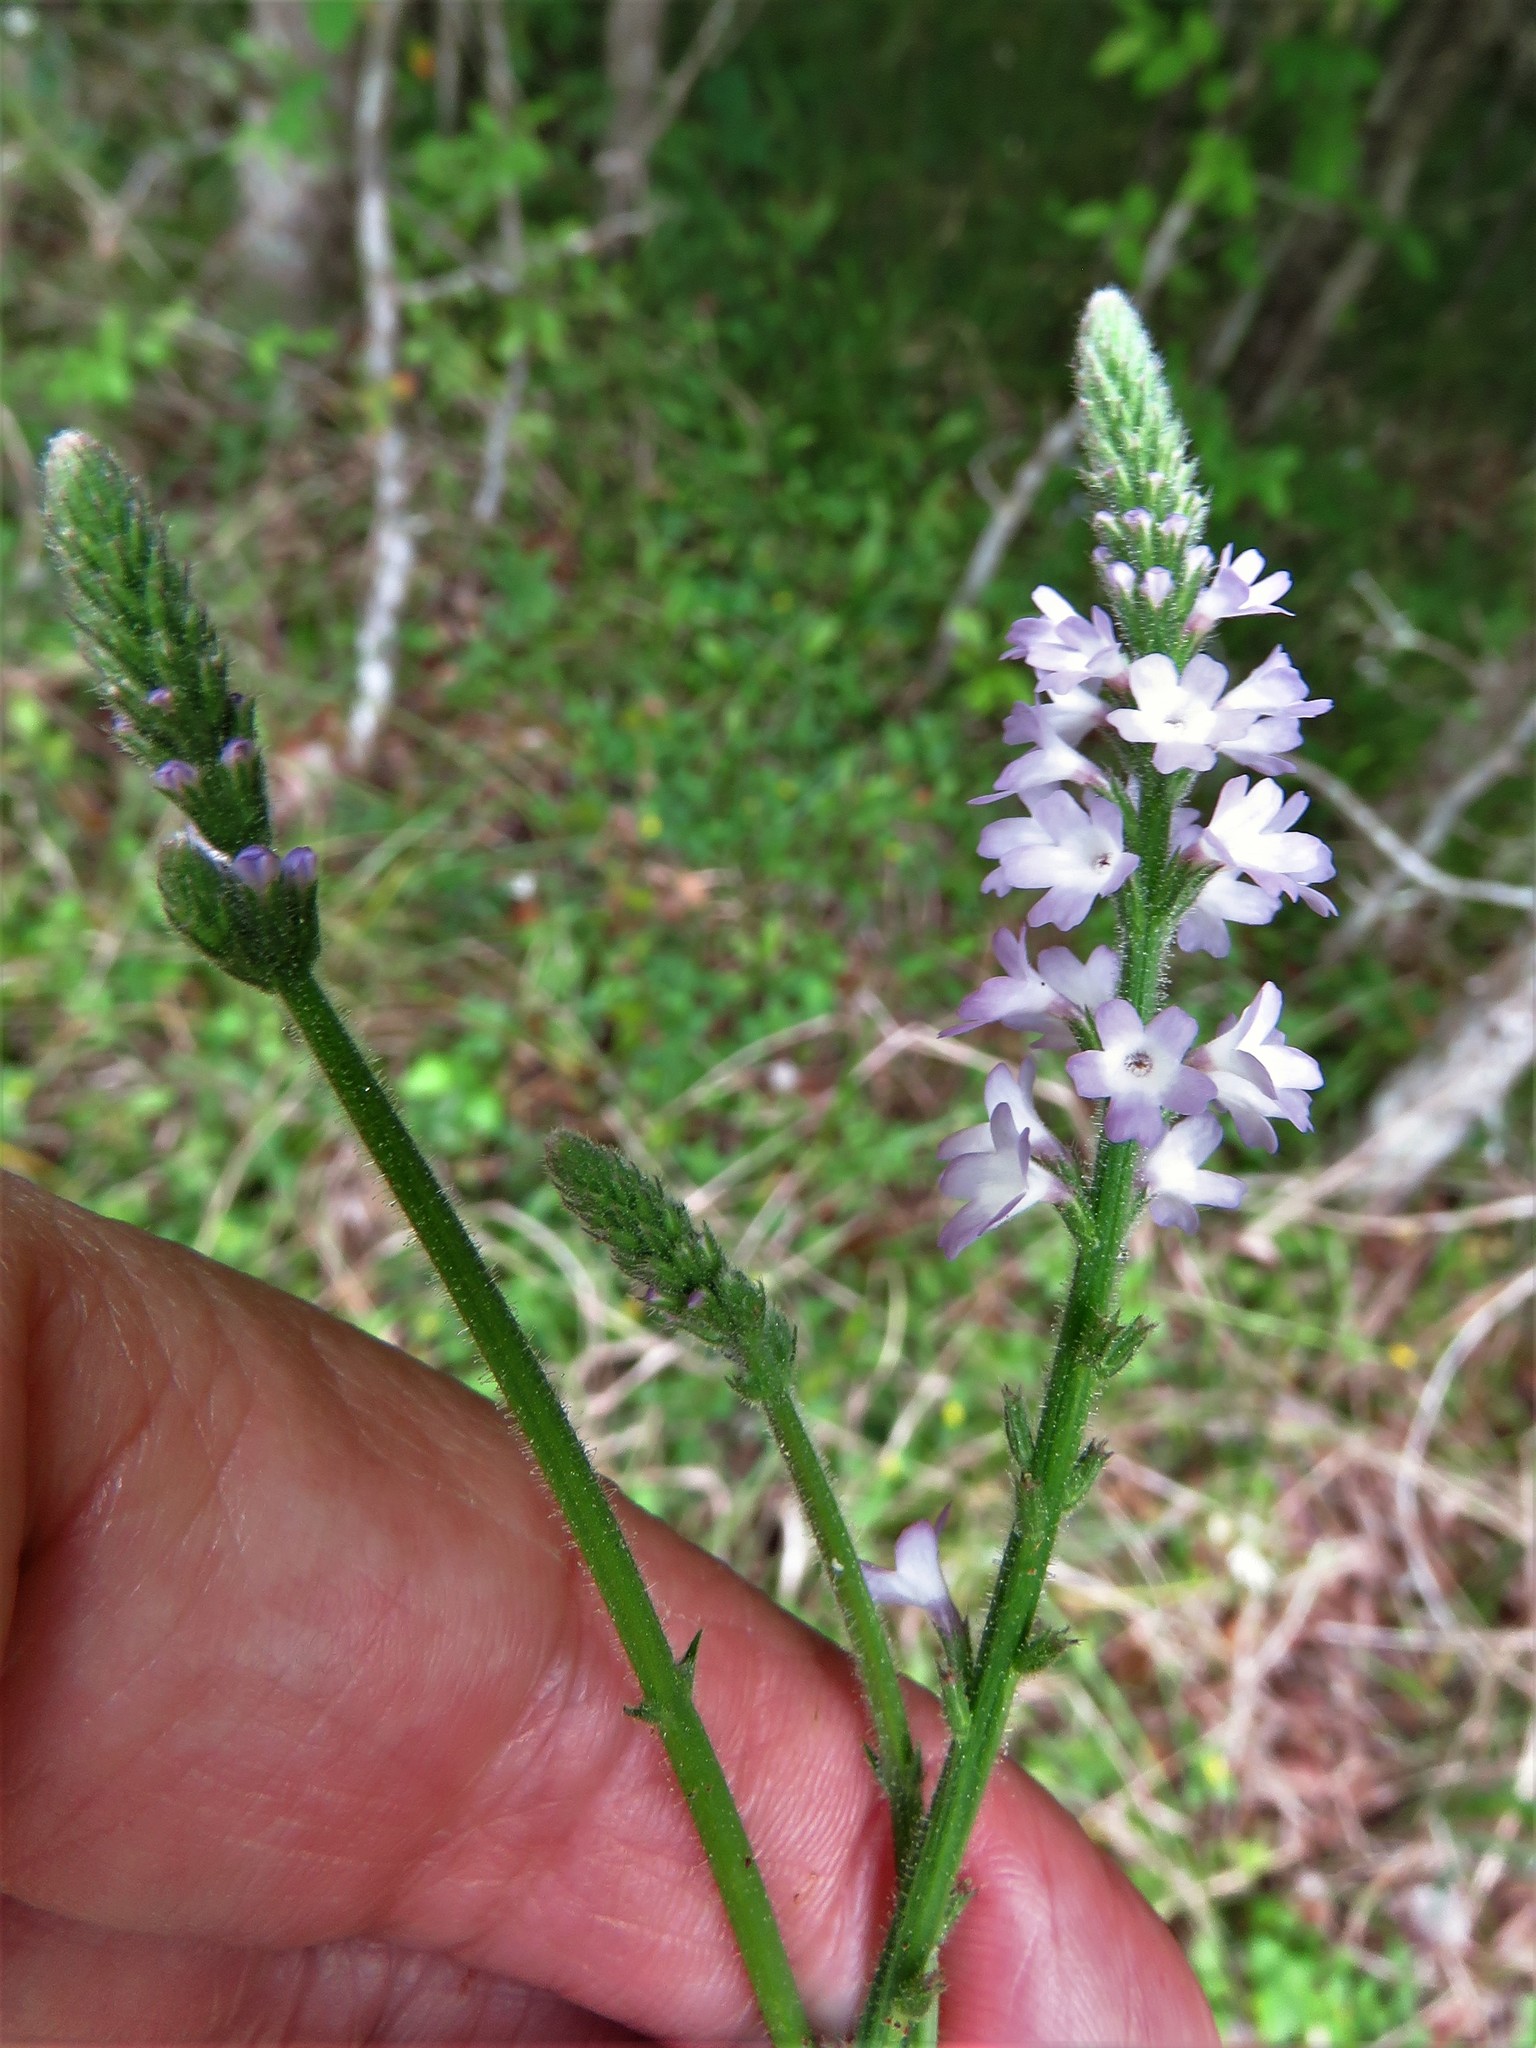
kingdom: Plantae
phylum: Tracheophyta
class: Magnoliopsida
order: Lamiales
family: Verbenaceae
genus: Verbena
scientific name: Verbena xutha
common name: Gulf vervain
